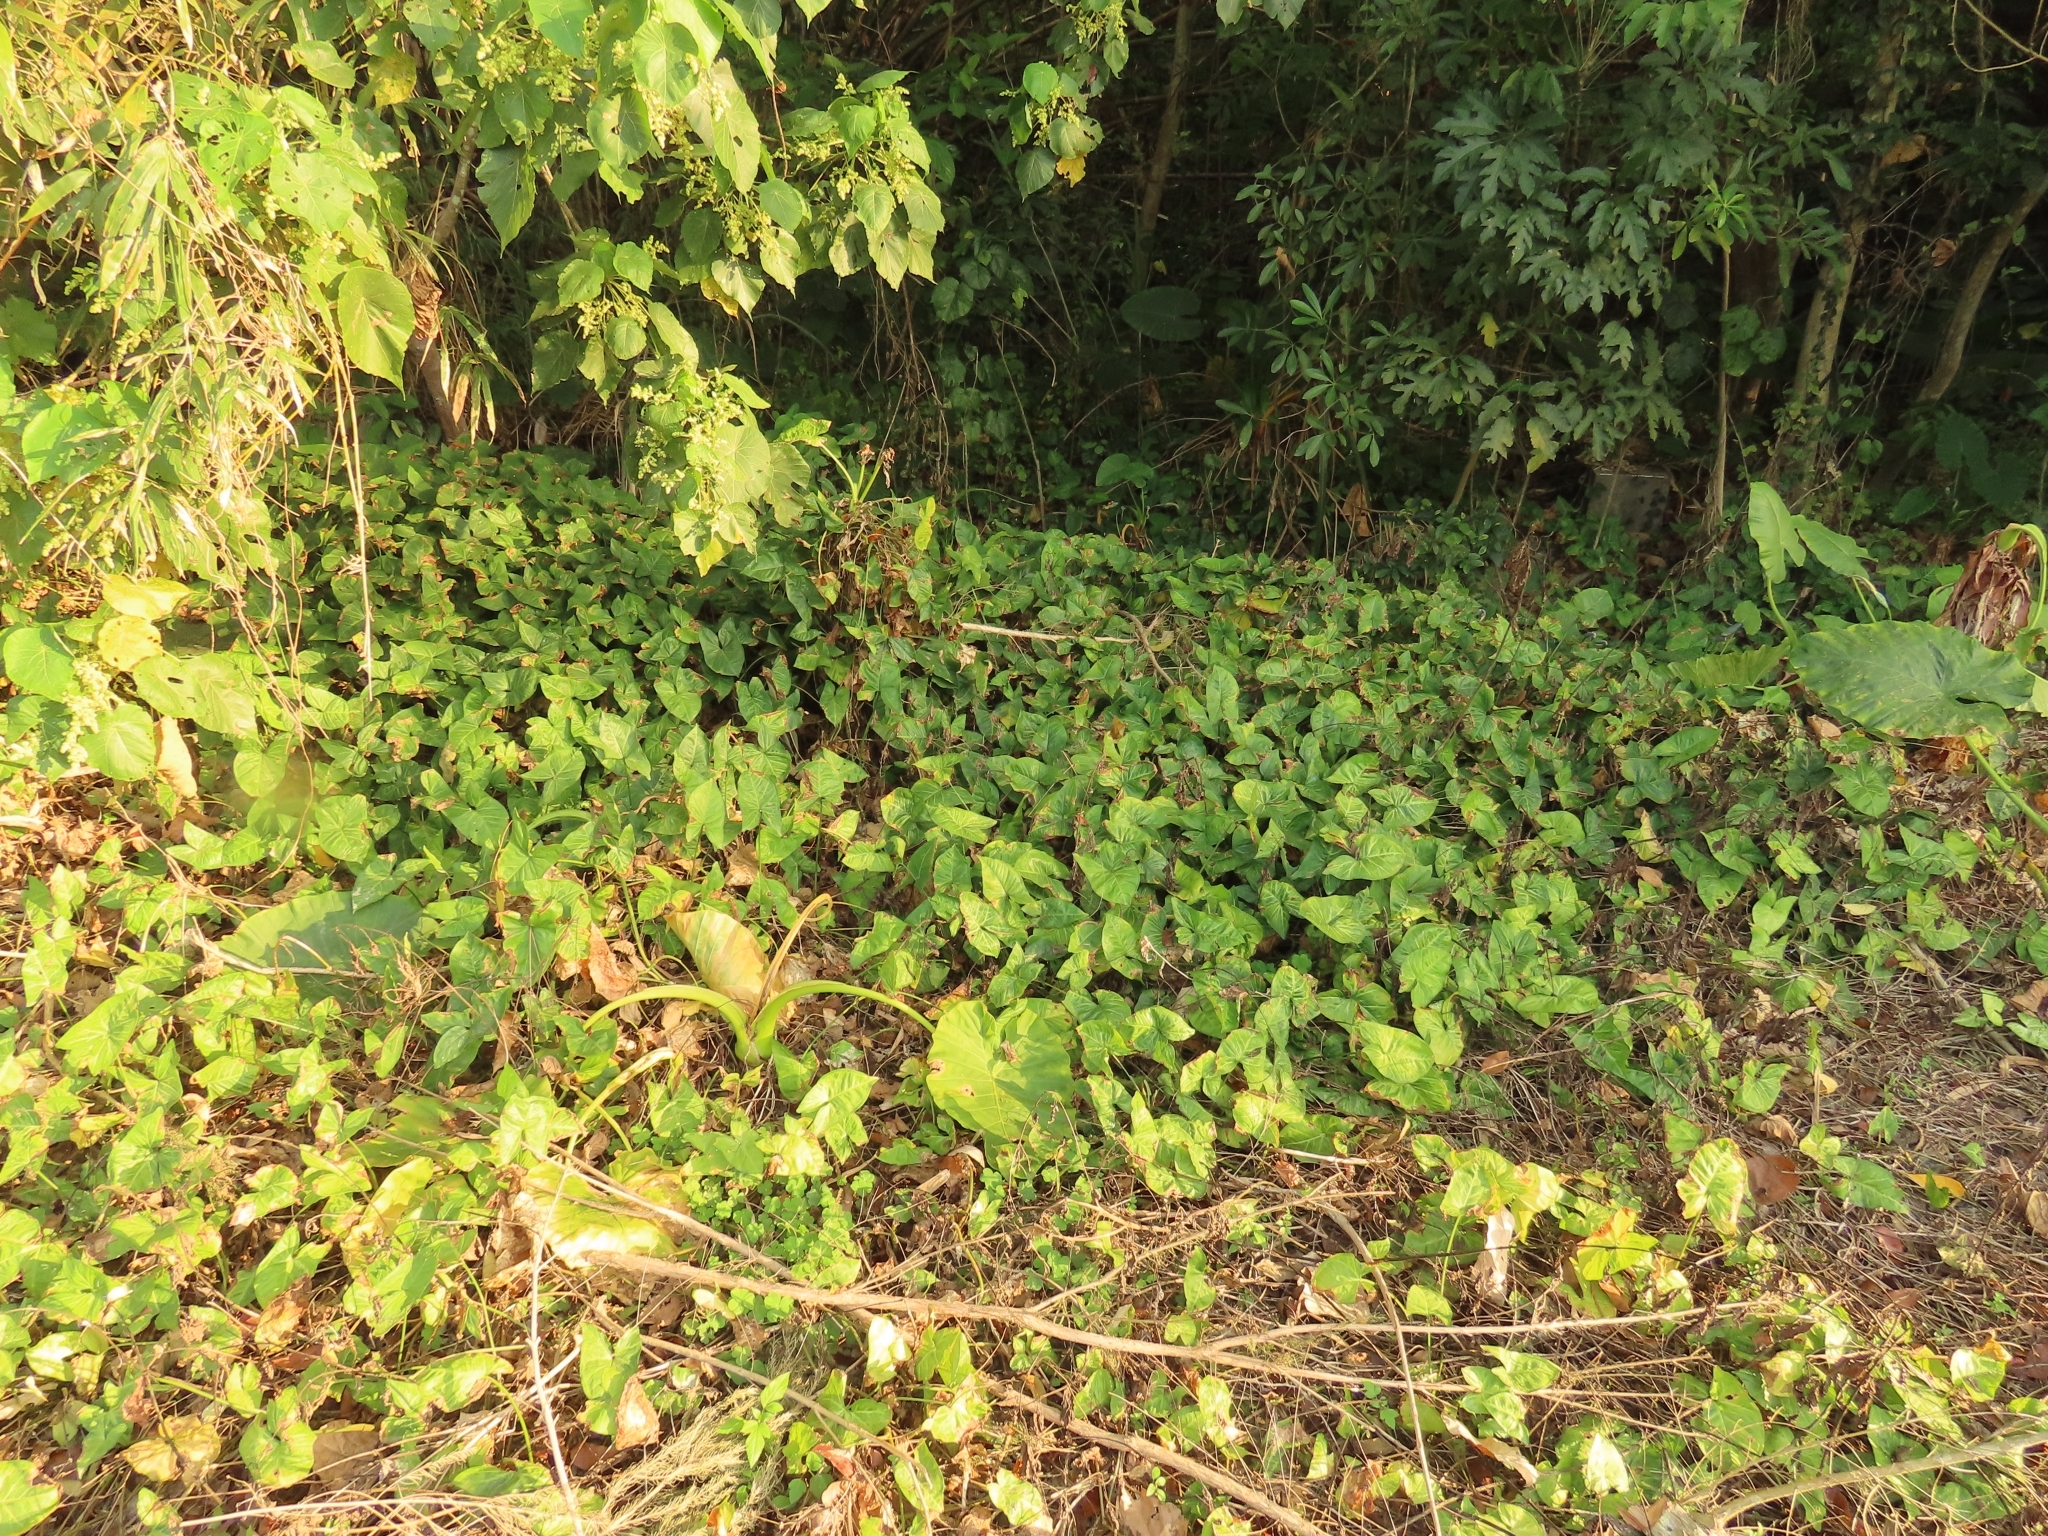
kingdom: Plantae
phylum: Tracheophyta
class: Liliopsida
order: Alismatales
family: Araceae
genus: Syngonium
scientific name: Syngonium podophyllum
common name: American evergreen
